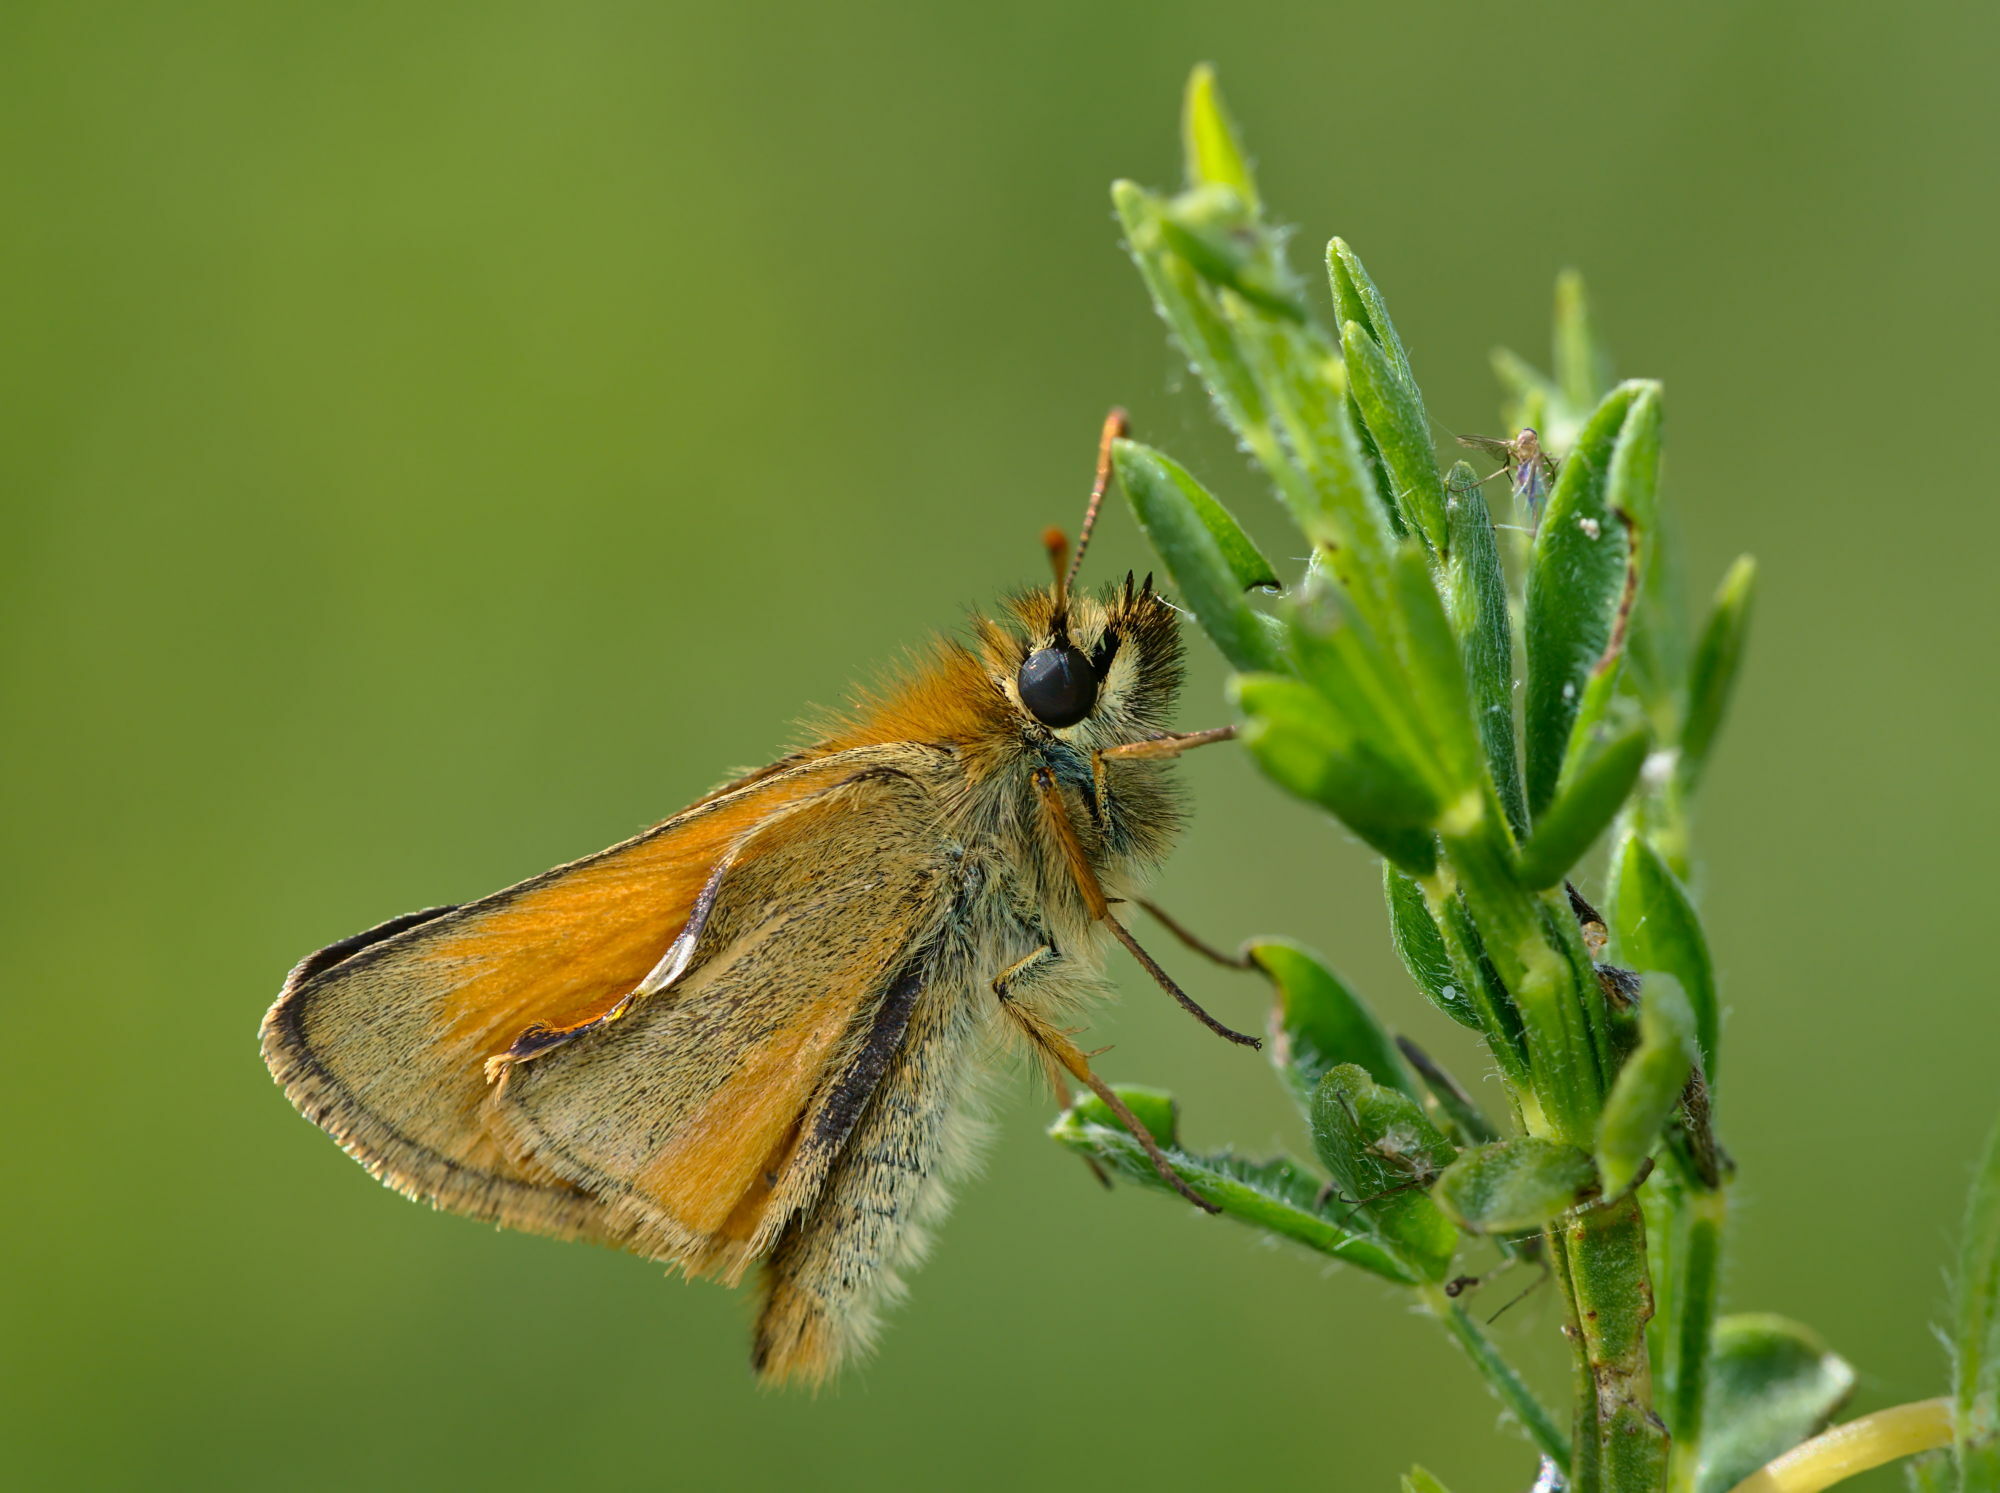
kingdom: Animalia
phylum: Arthropoda
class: Insecta
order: Lepidoptera
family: Hesperiidae
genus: Thymelicus
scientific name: Thymelicus sylvestris
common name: Small skipper
